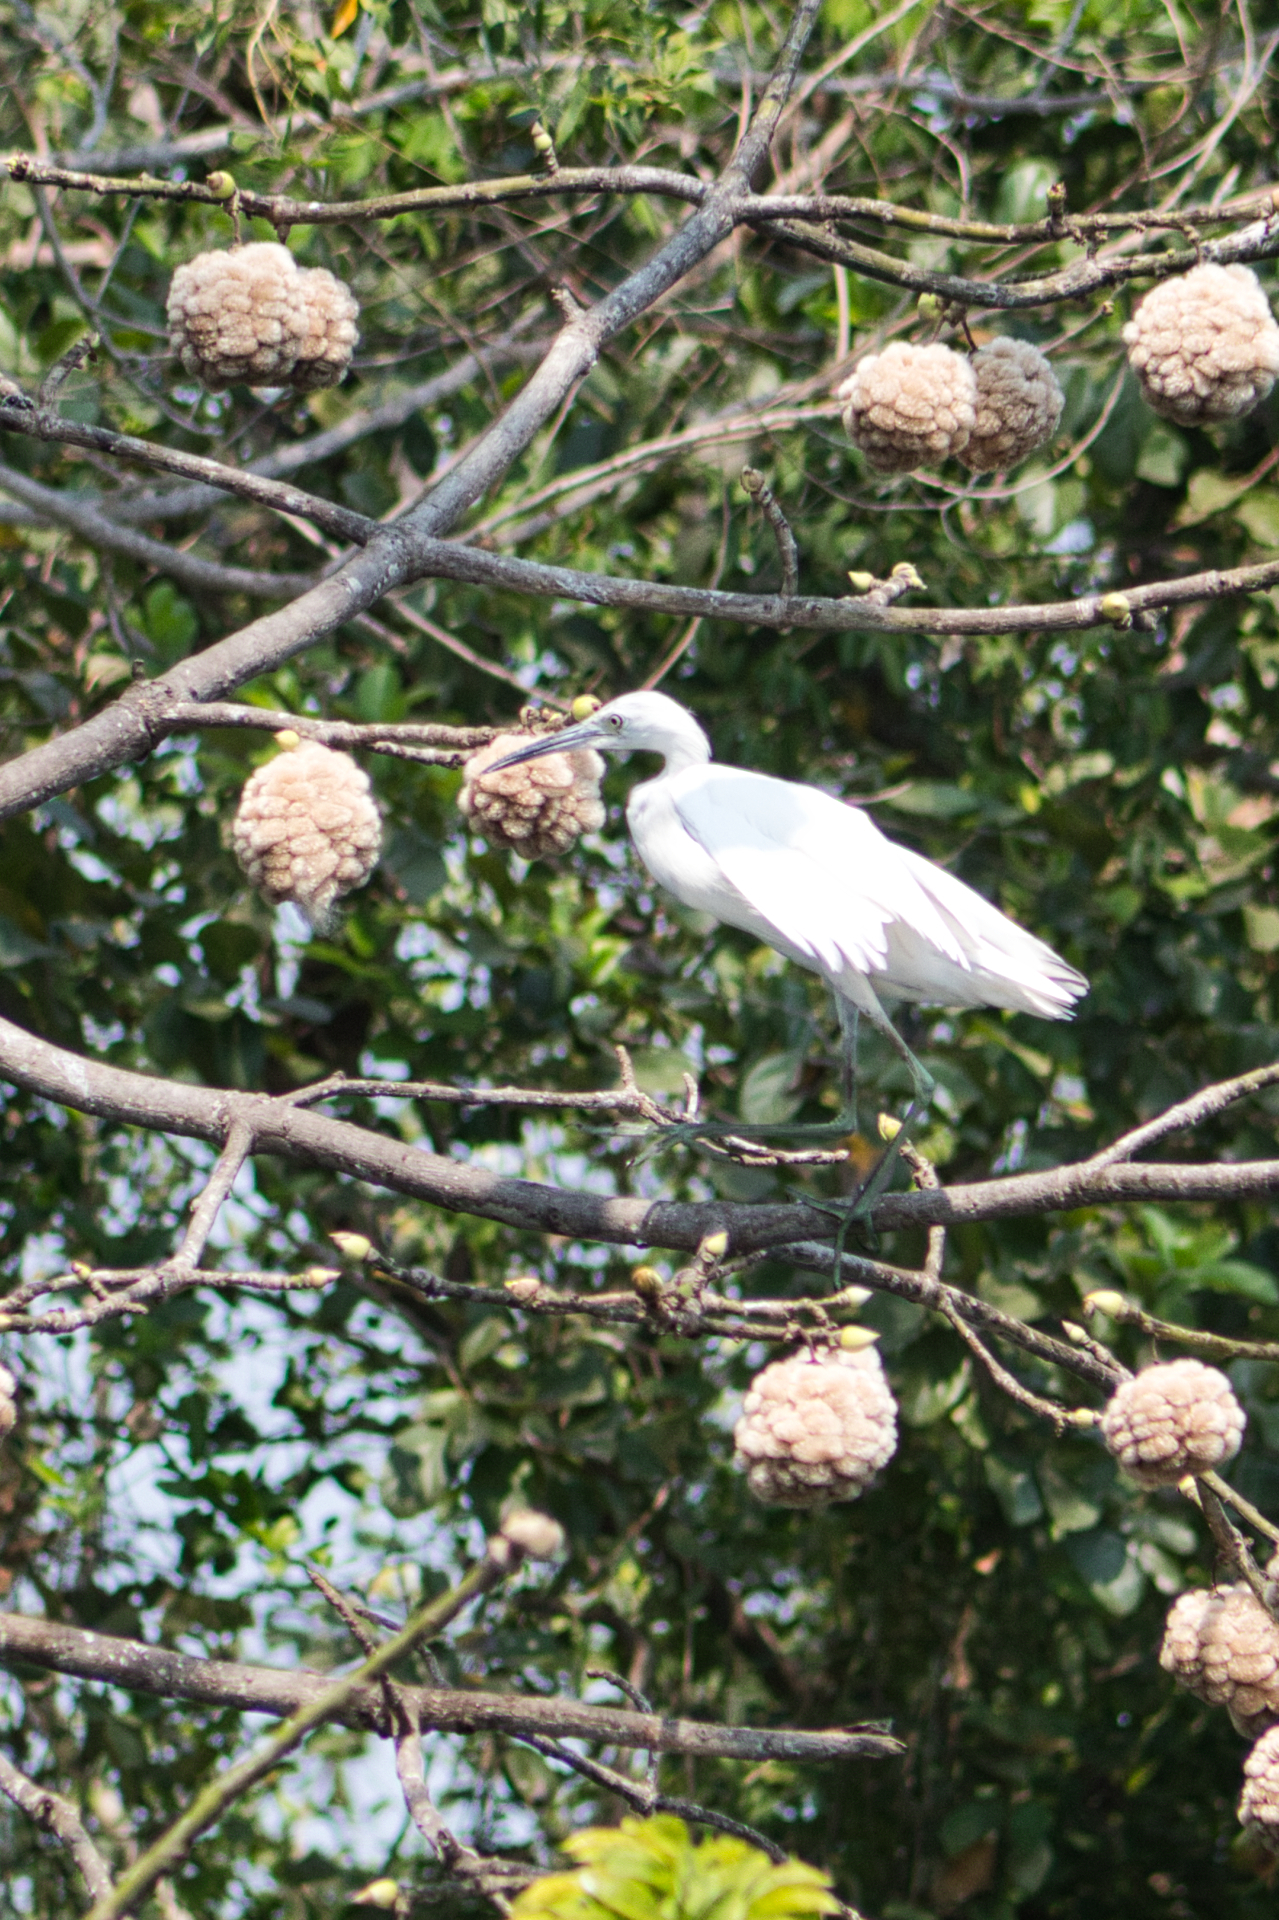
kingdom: Animalia
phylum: Chordata
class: Aves
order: Pelecaniformes
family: Ardeidae
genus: Egretta
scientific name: Egretta caerulea
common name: Little blue heron
